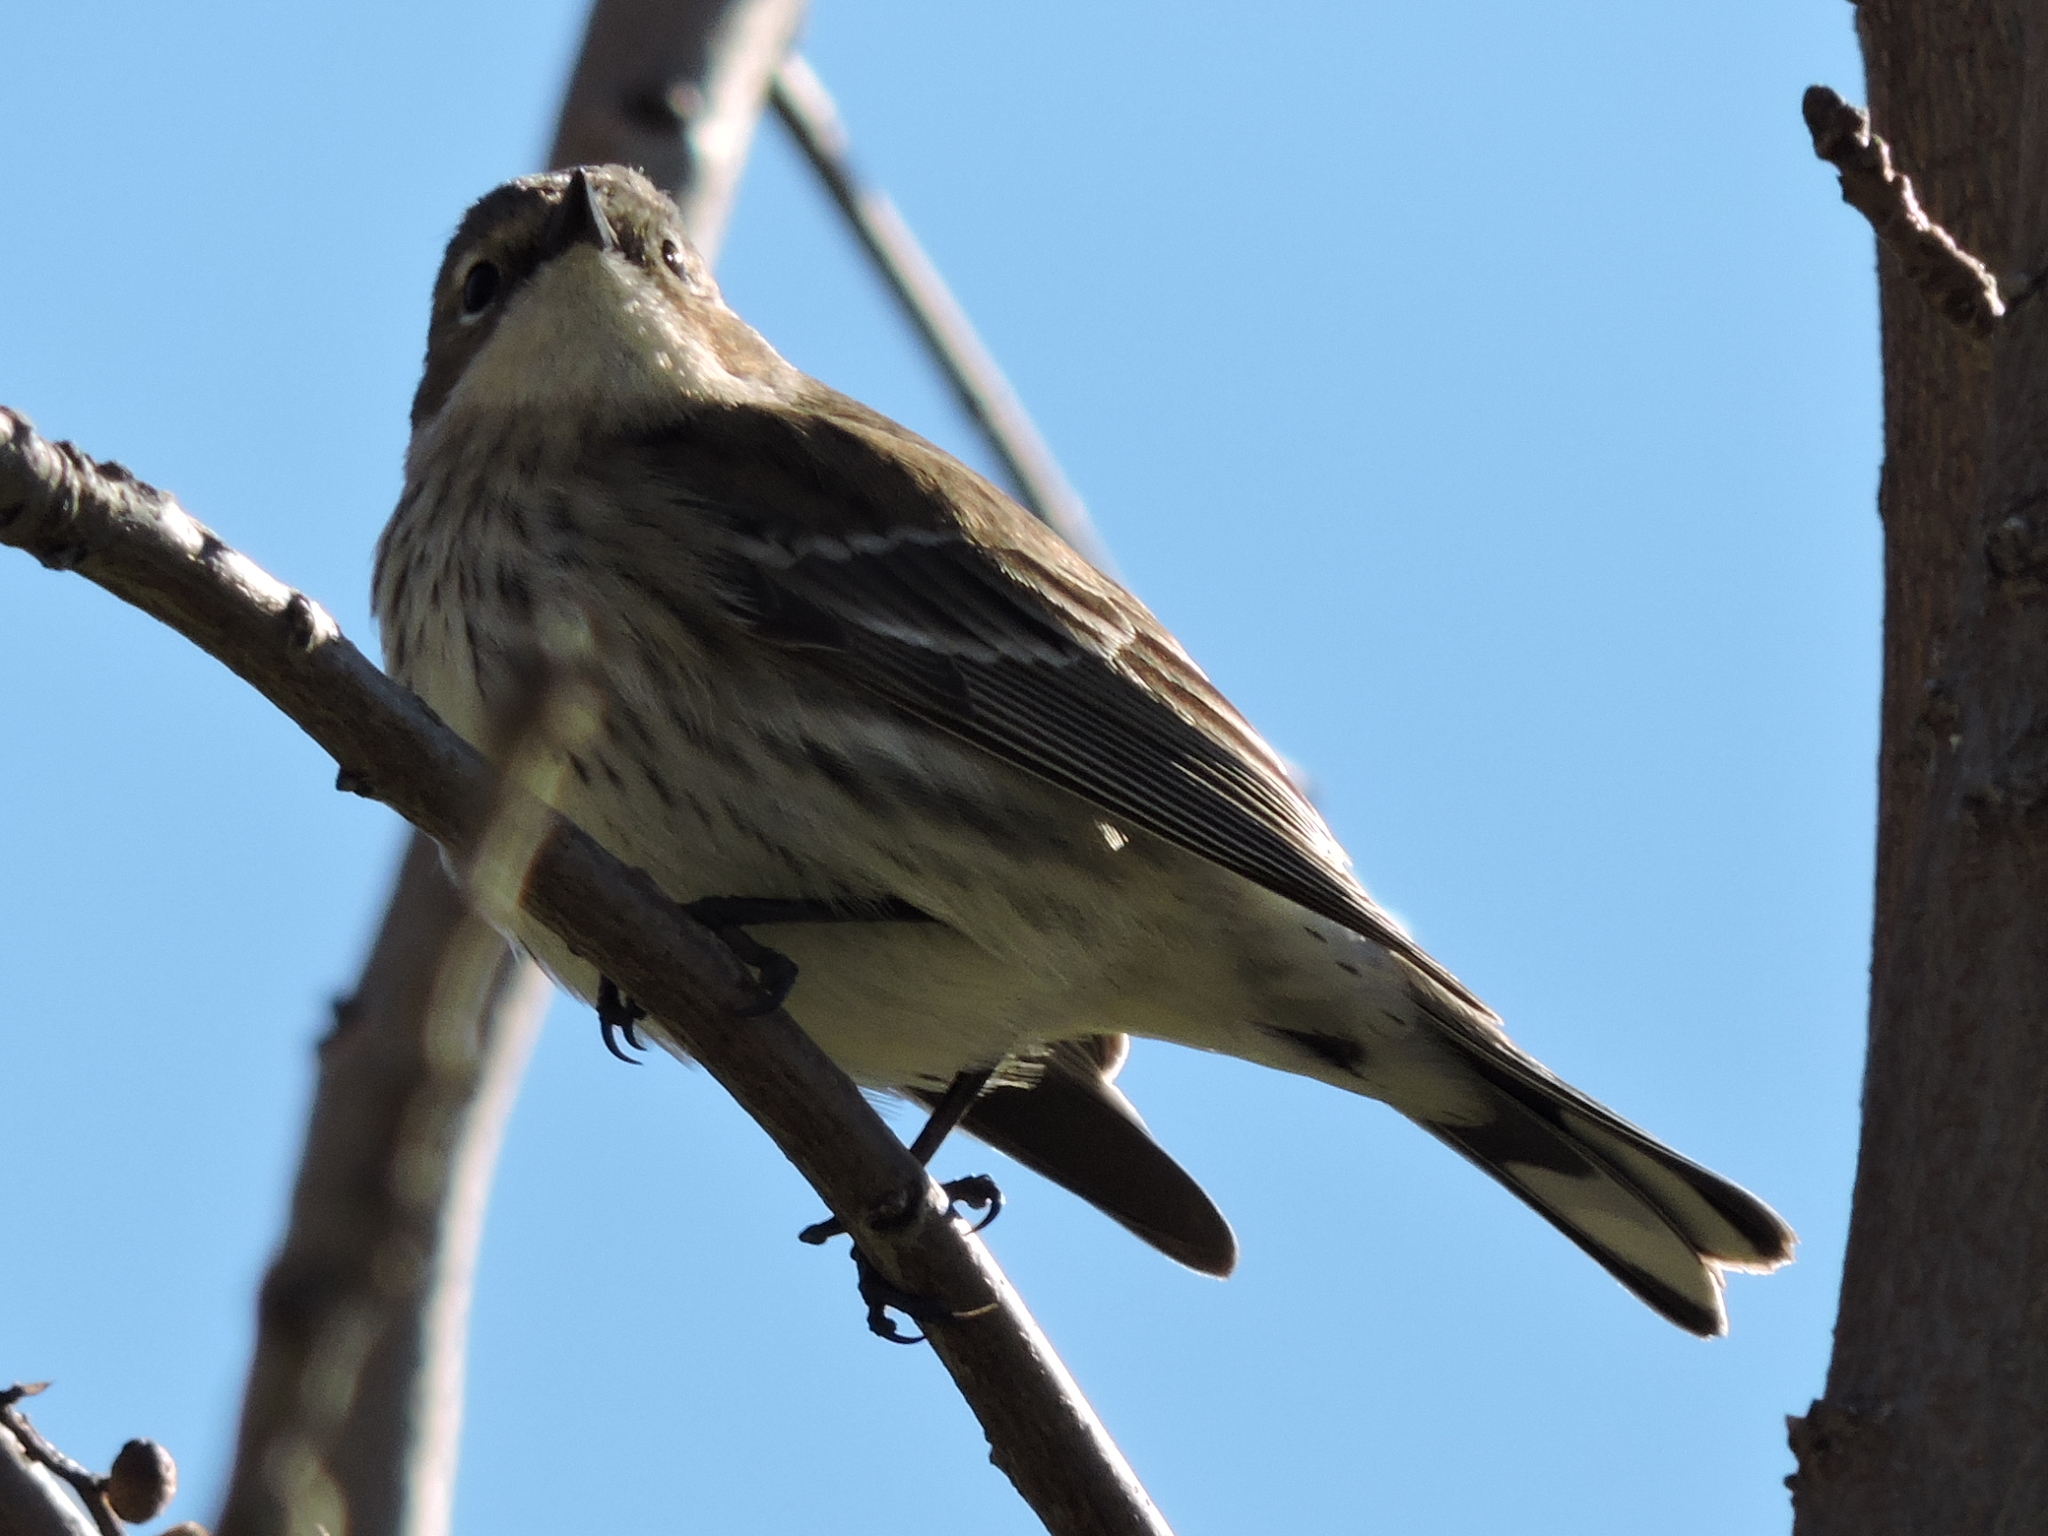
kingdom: Animalia
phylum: Chordata
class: Aves
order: Passeriformes
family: Parulidae
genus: Setophaga
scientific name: Setophaga coronata
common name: Myrtle warbler
